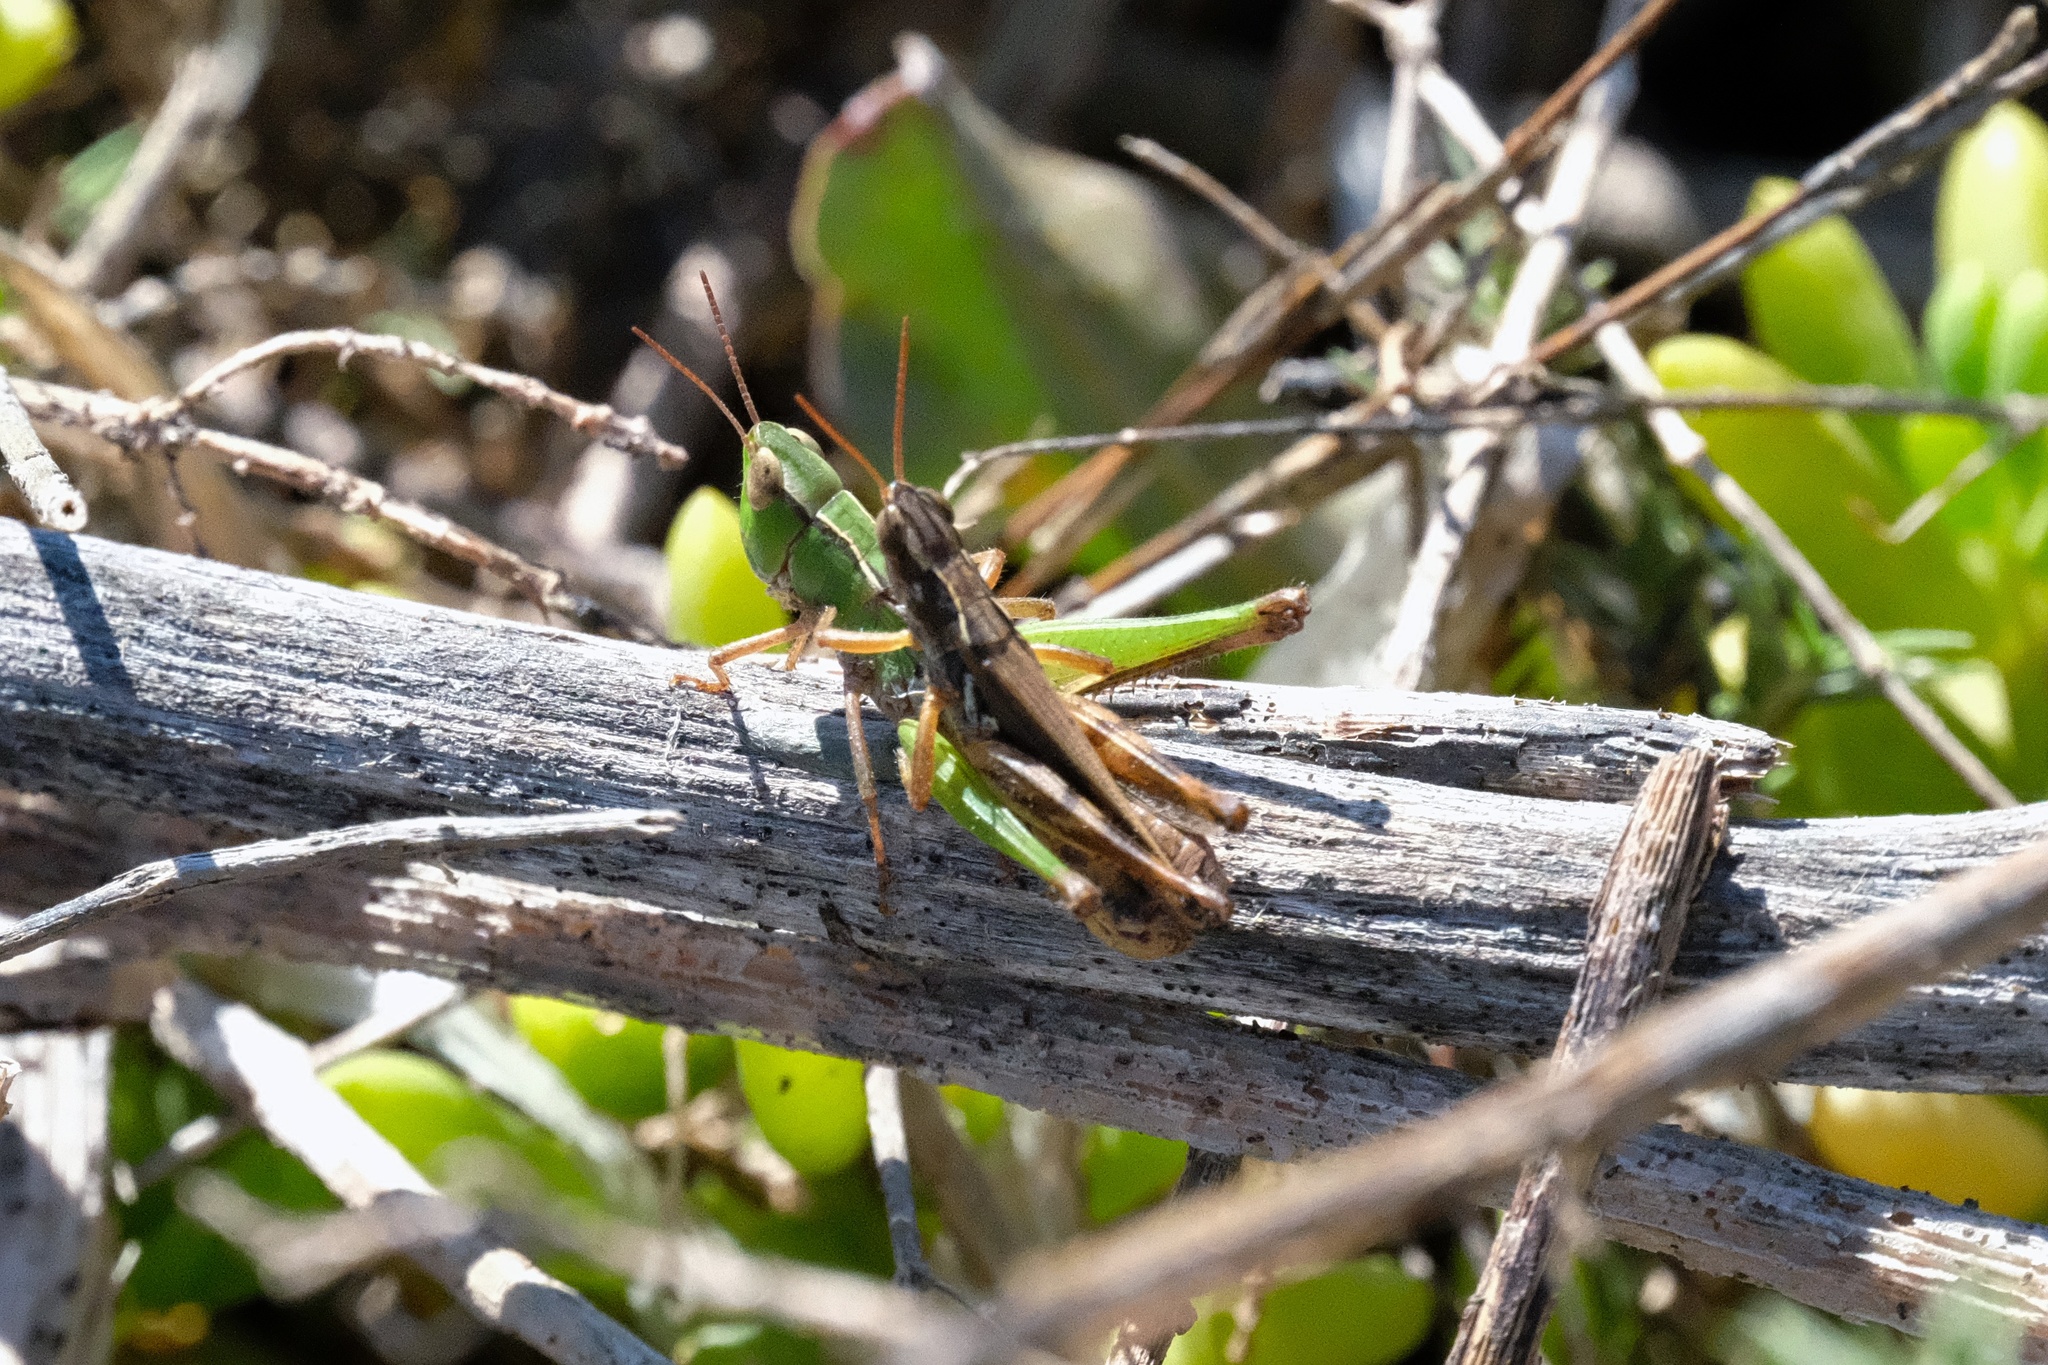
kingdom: Animalia
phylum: Arthropoda
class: Insecta
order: Orthoptera
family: Acrididae
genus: Orphulella
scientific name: Orphulella pelidna
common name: Spotted-wing grasshopper
